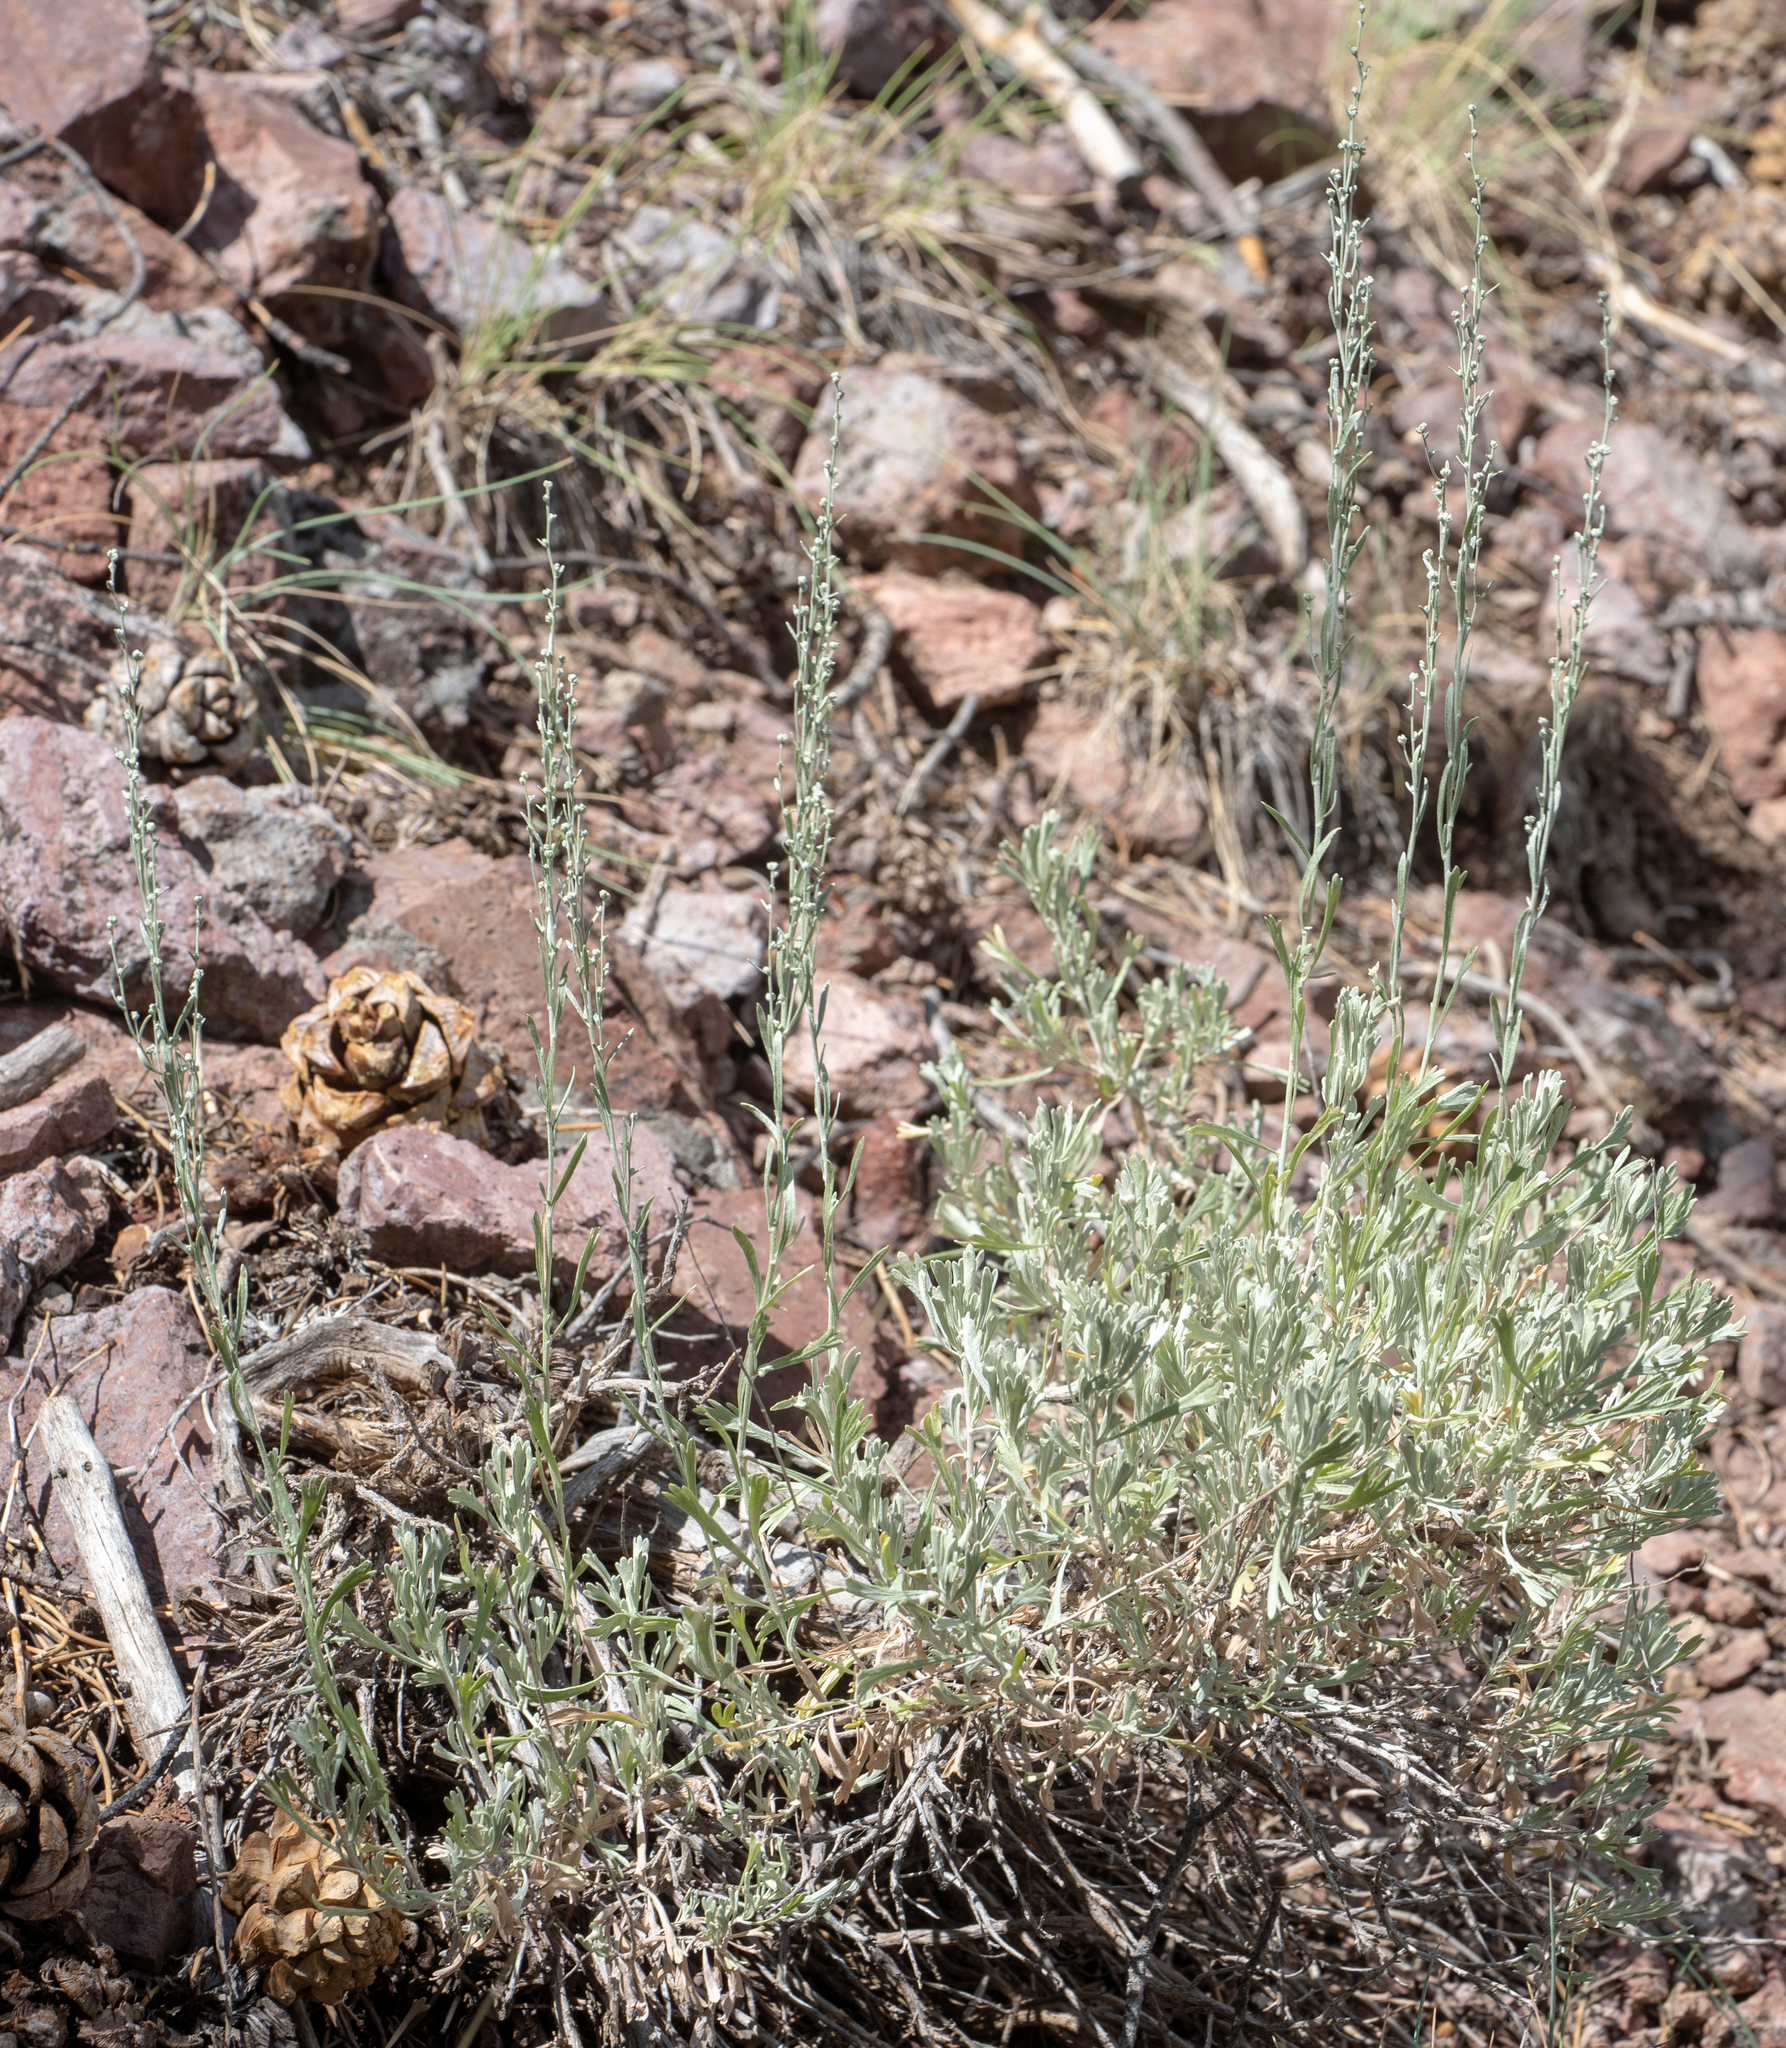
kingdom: Plantae
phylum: Tracheophyta
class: Magnoliopsida
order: Asterales
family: Asteraceae
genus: Artemisia
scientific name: Artemisia tridentata
